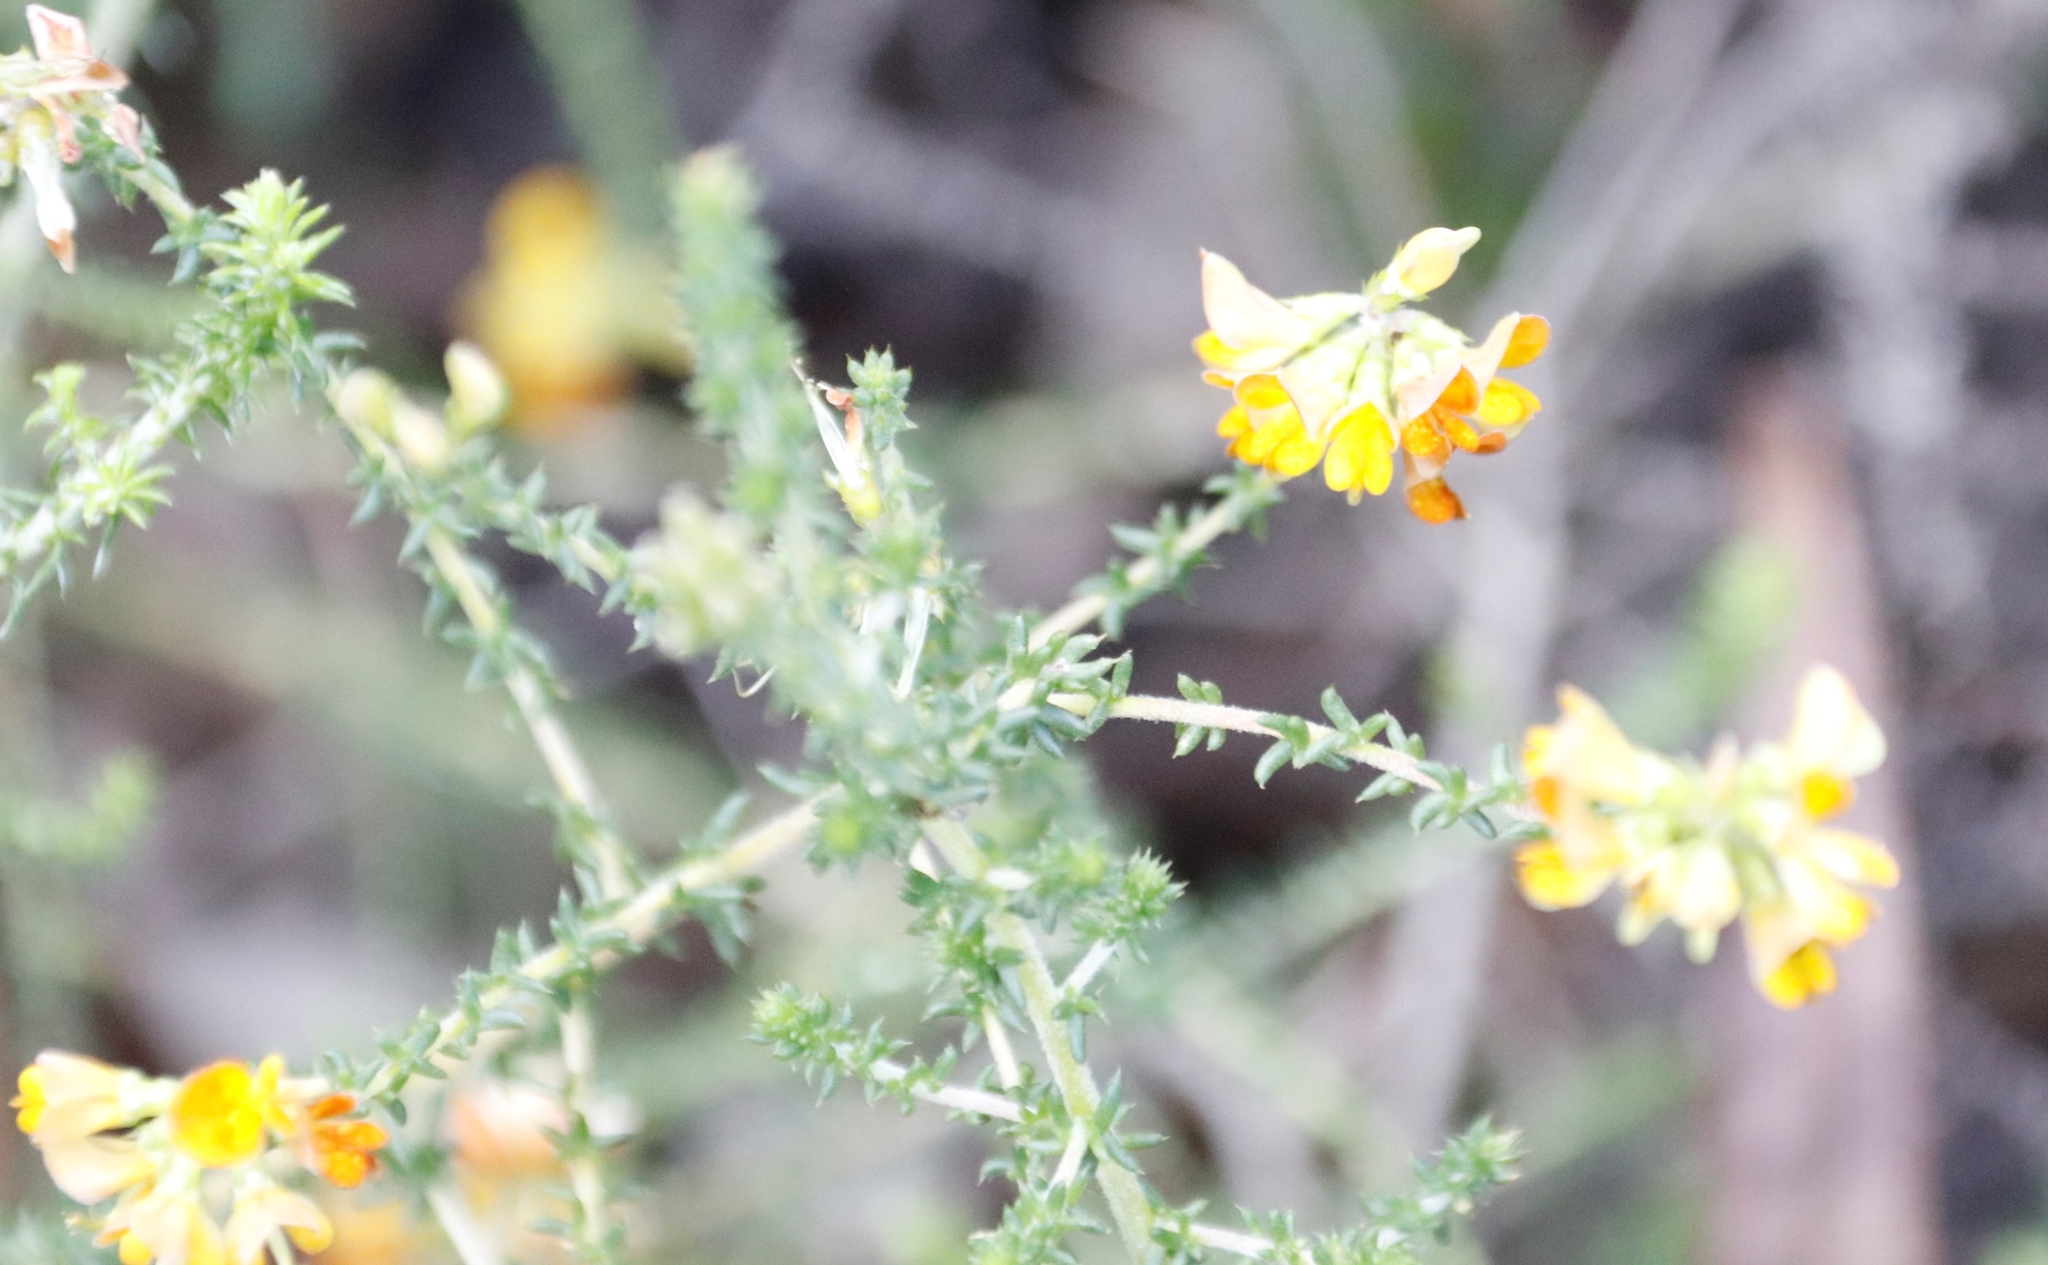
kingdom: Plantae
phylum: Tracheophyta
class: Magnoliopsida
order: Fabales
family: Fabaceae
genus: Aspalathus
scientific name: Aspalathus divaricata
